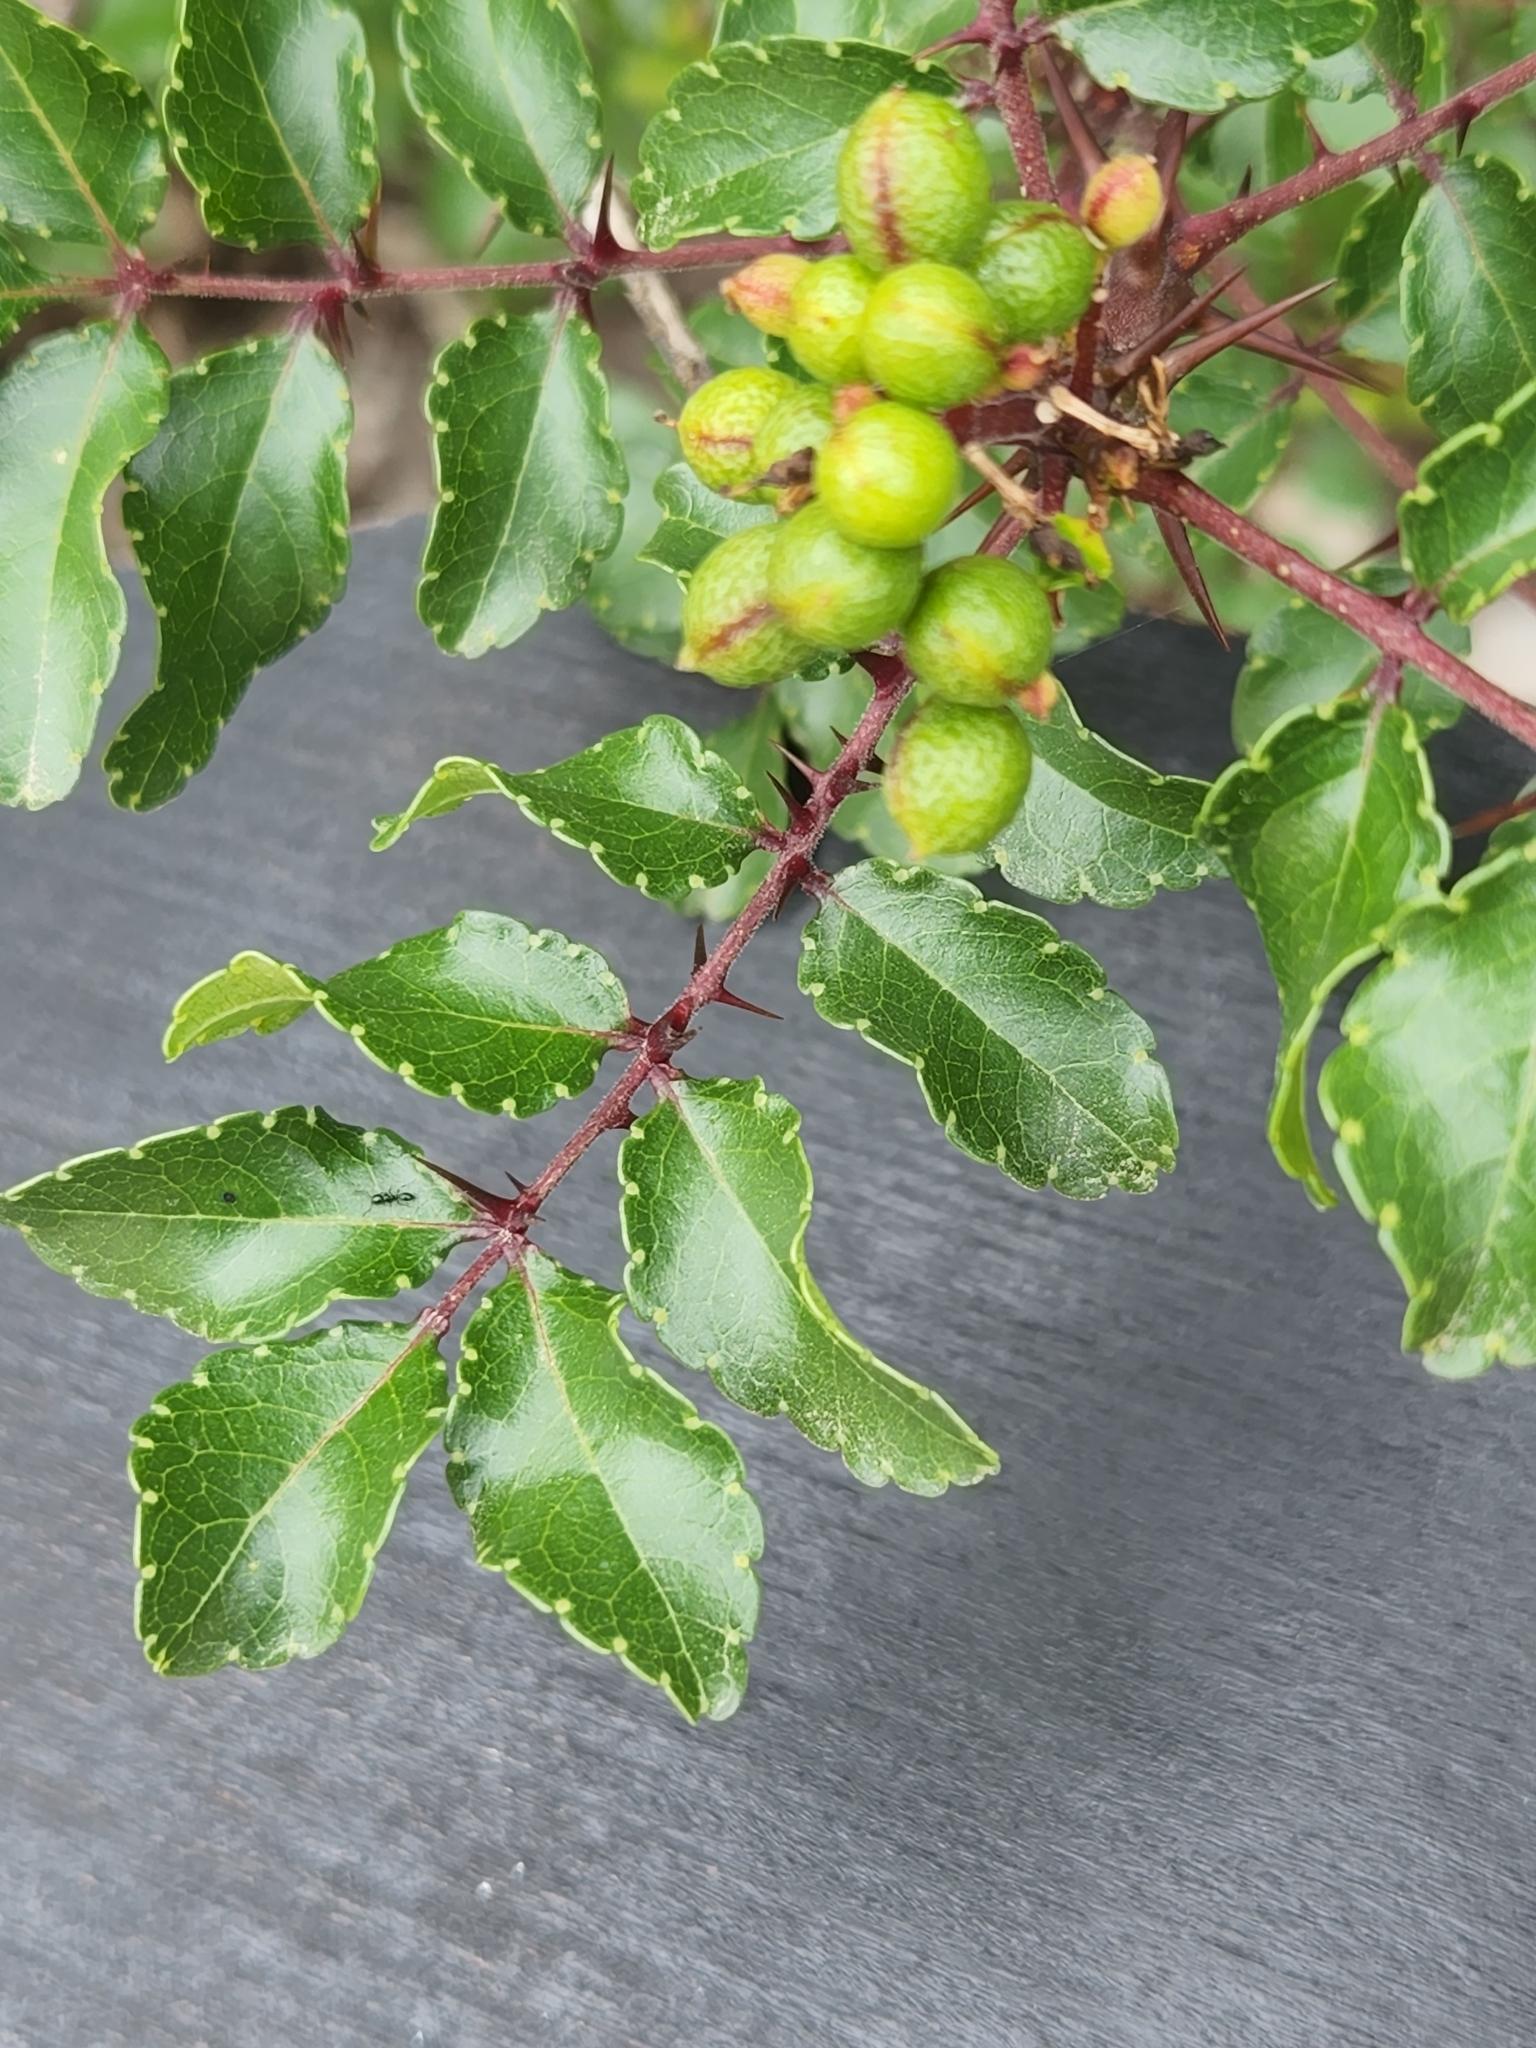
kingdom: Plantae
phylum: Tracheophyta
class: Magnoliopsida
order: Sapindales
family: Rutaceae
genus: Zanthoxylum
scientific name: Zanthoxylum clava-herculis
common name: Hercules'-club
